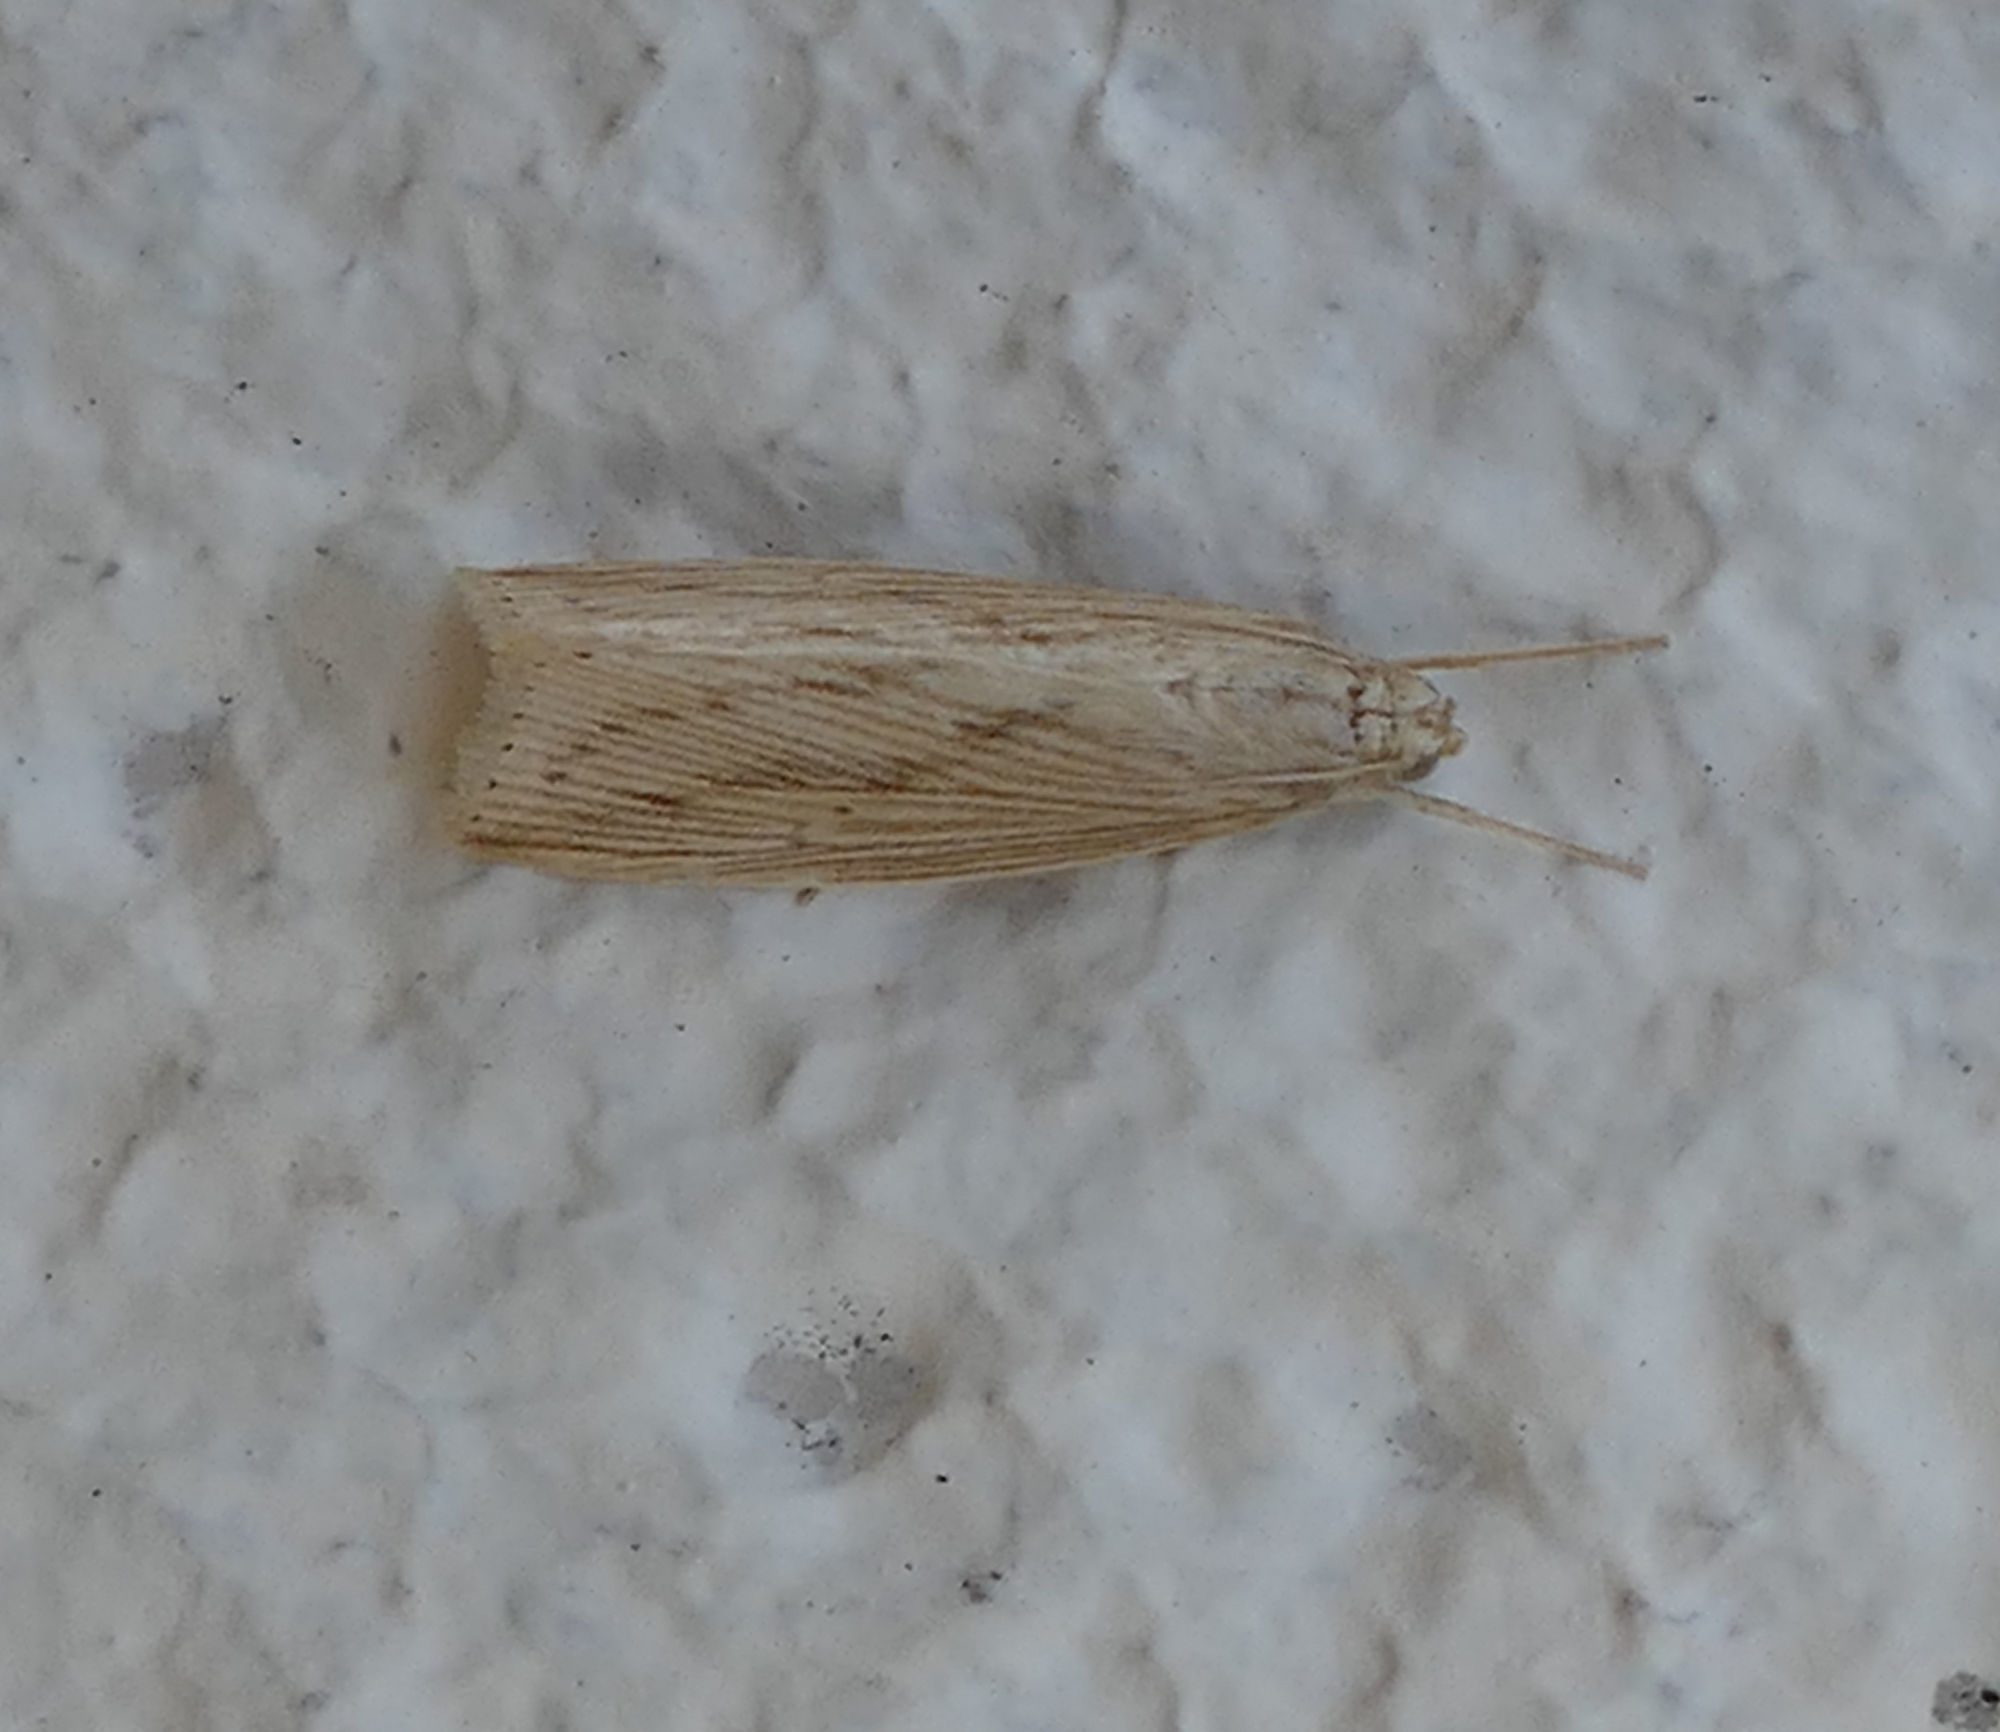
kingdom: Animalia
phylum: Arthropoda
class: Insecta
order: Lepidoptera
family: Crambidae
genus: Diatraea
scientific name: Diatraea lisetta
